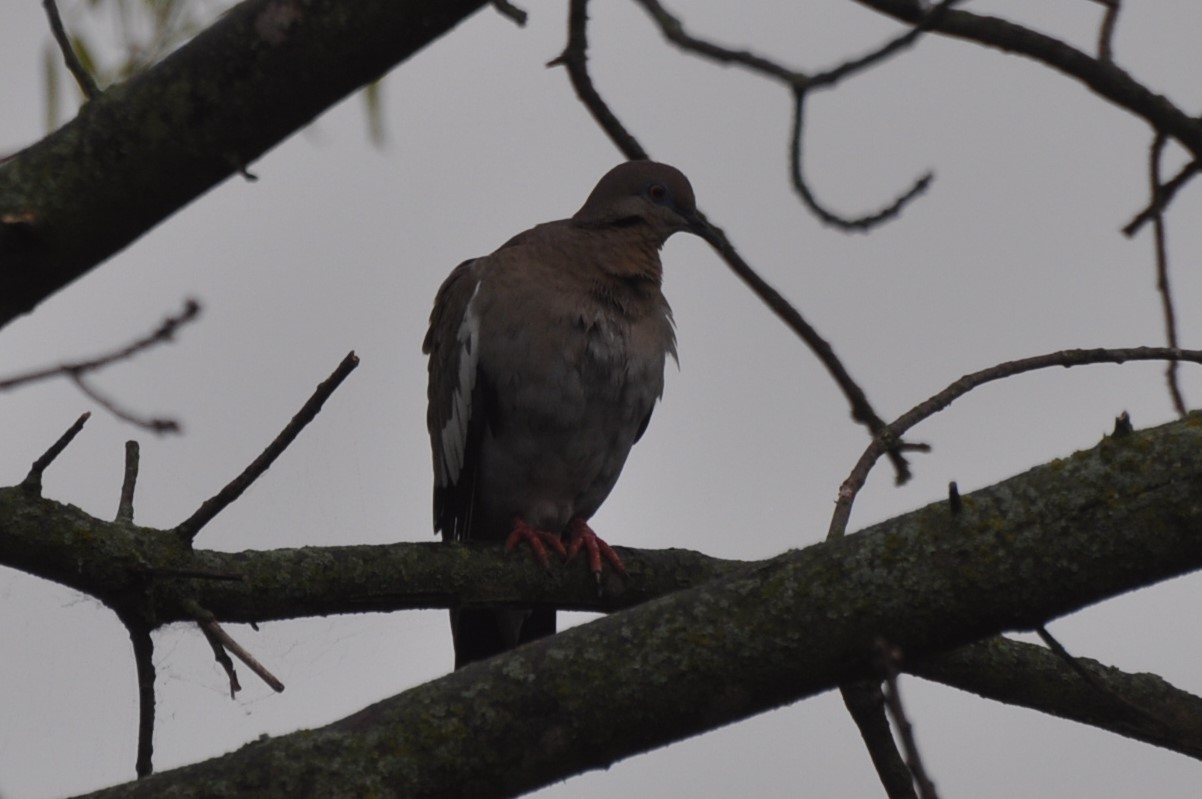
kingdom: Animalia
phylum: Chordata
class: Aves
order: Columbiformes
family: Columbidae
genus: Zenaida
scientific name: Zenaida asiatica
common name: White-winged dove
